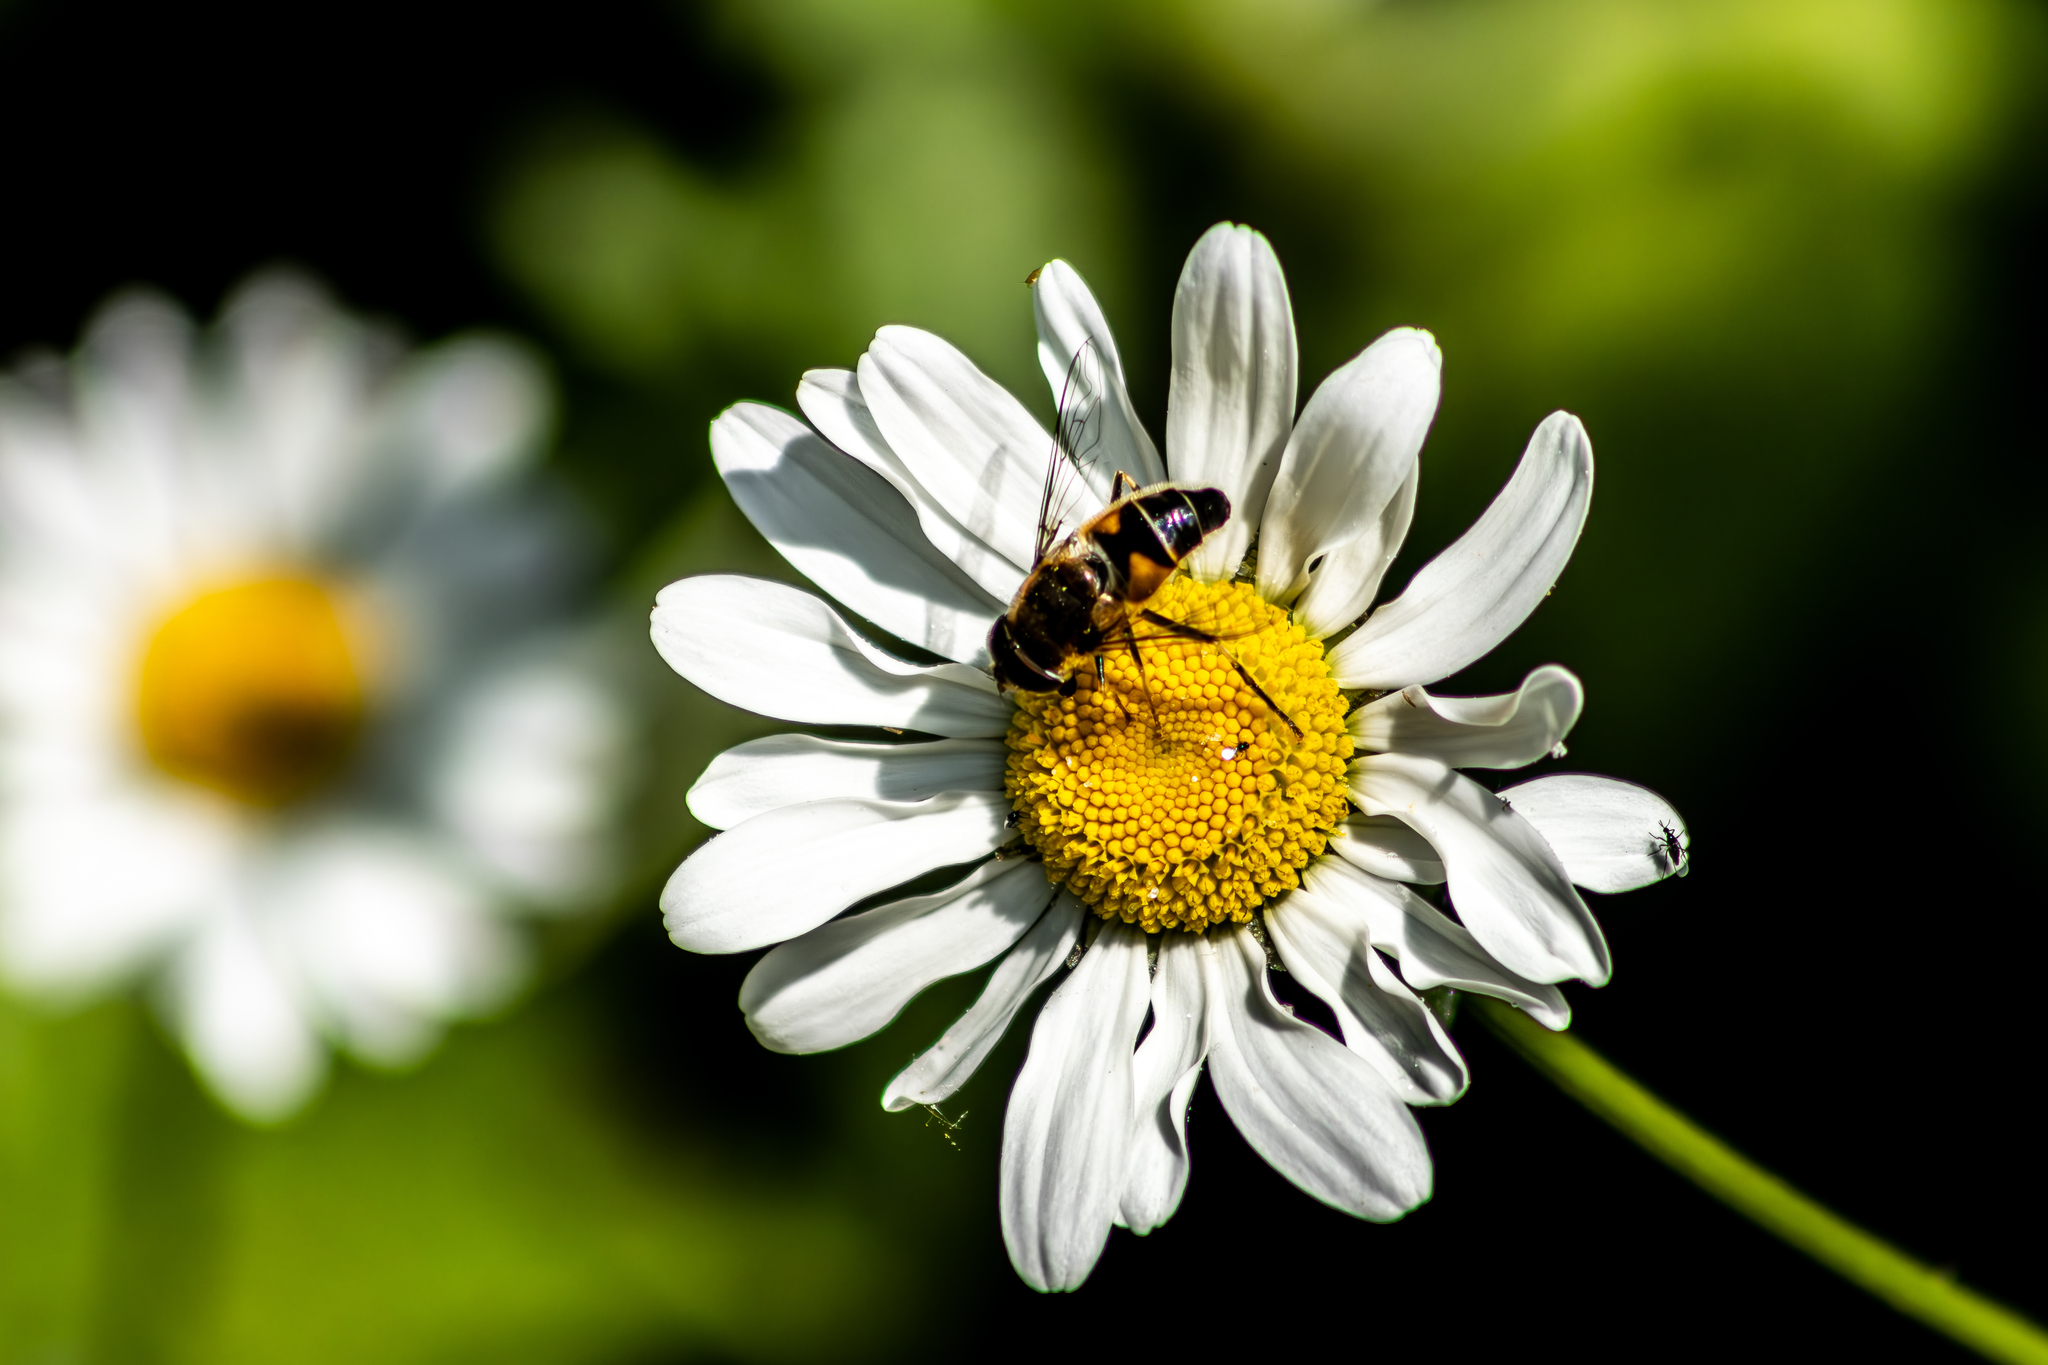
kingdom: Animalia
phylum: Arthropoda
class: Insecta
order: Diptera
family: Syrphidae
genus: Eristalis
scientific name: Eristalis pertinax
